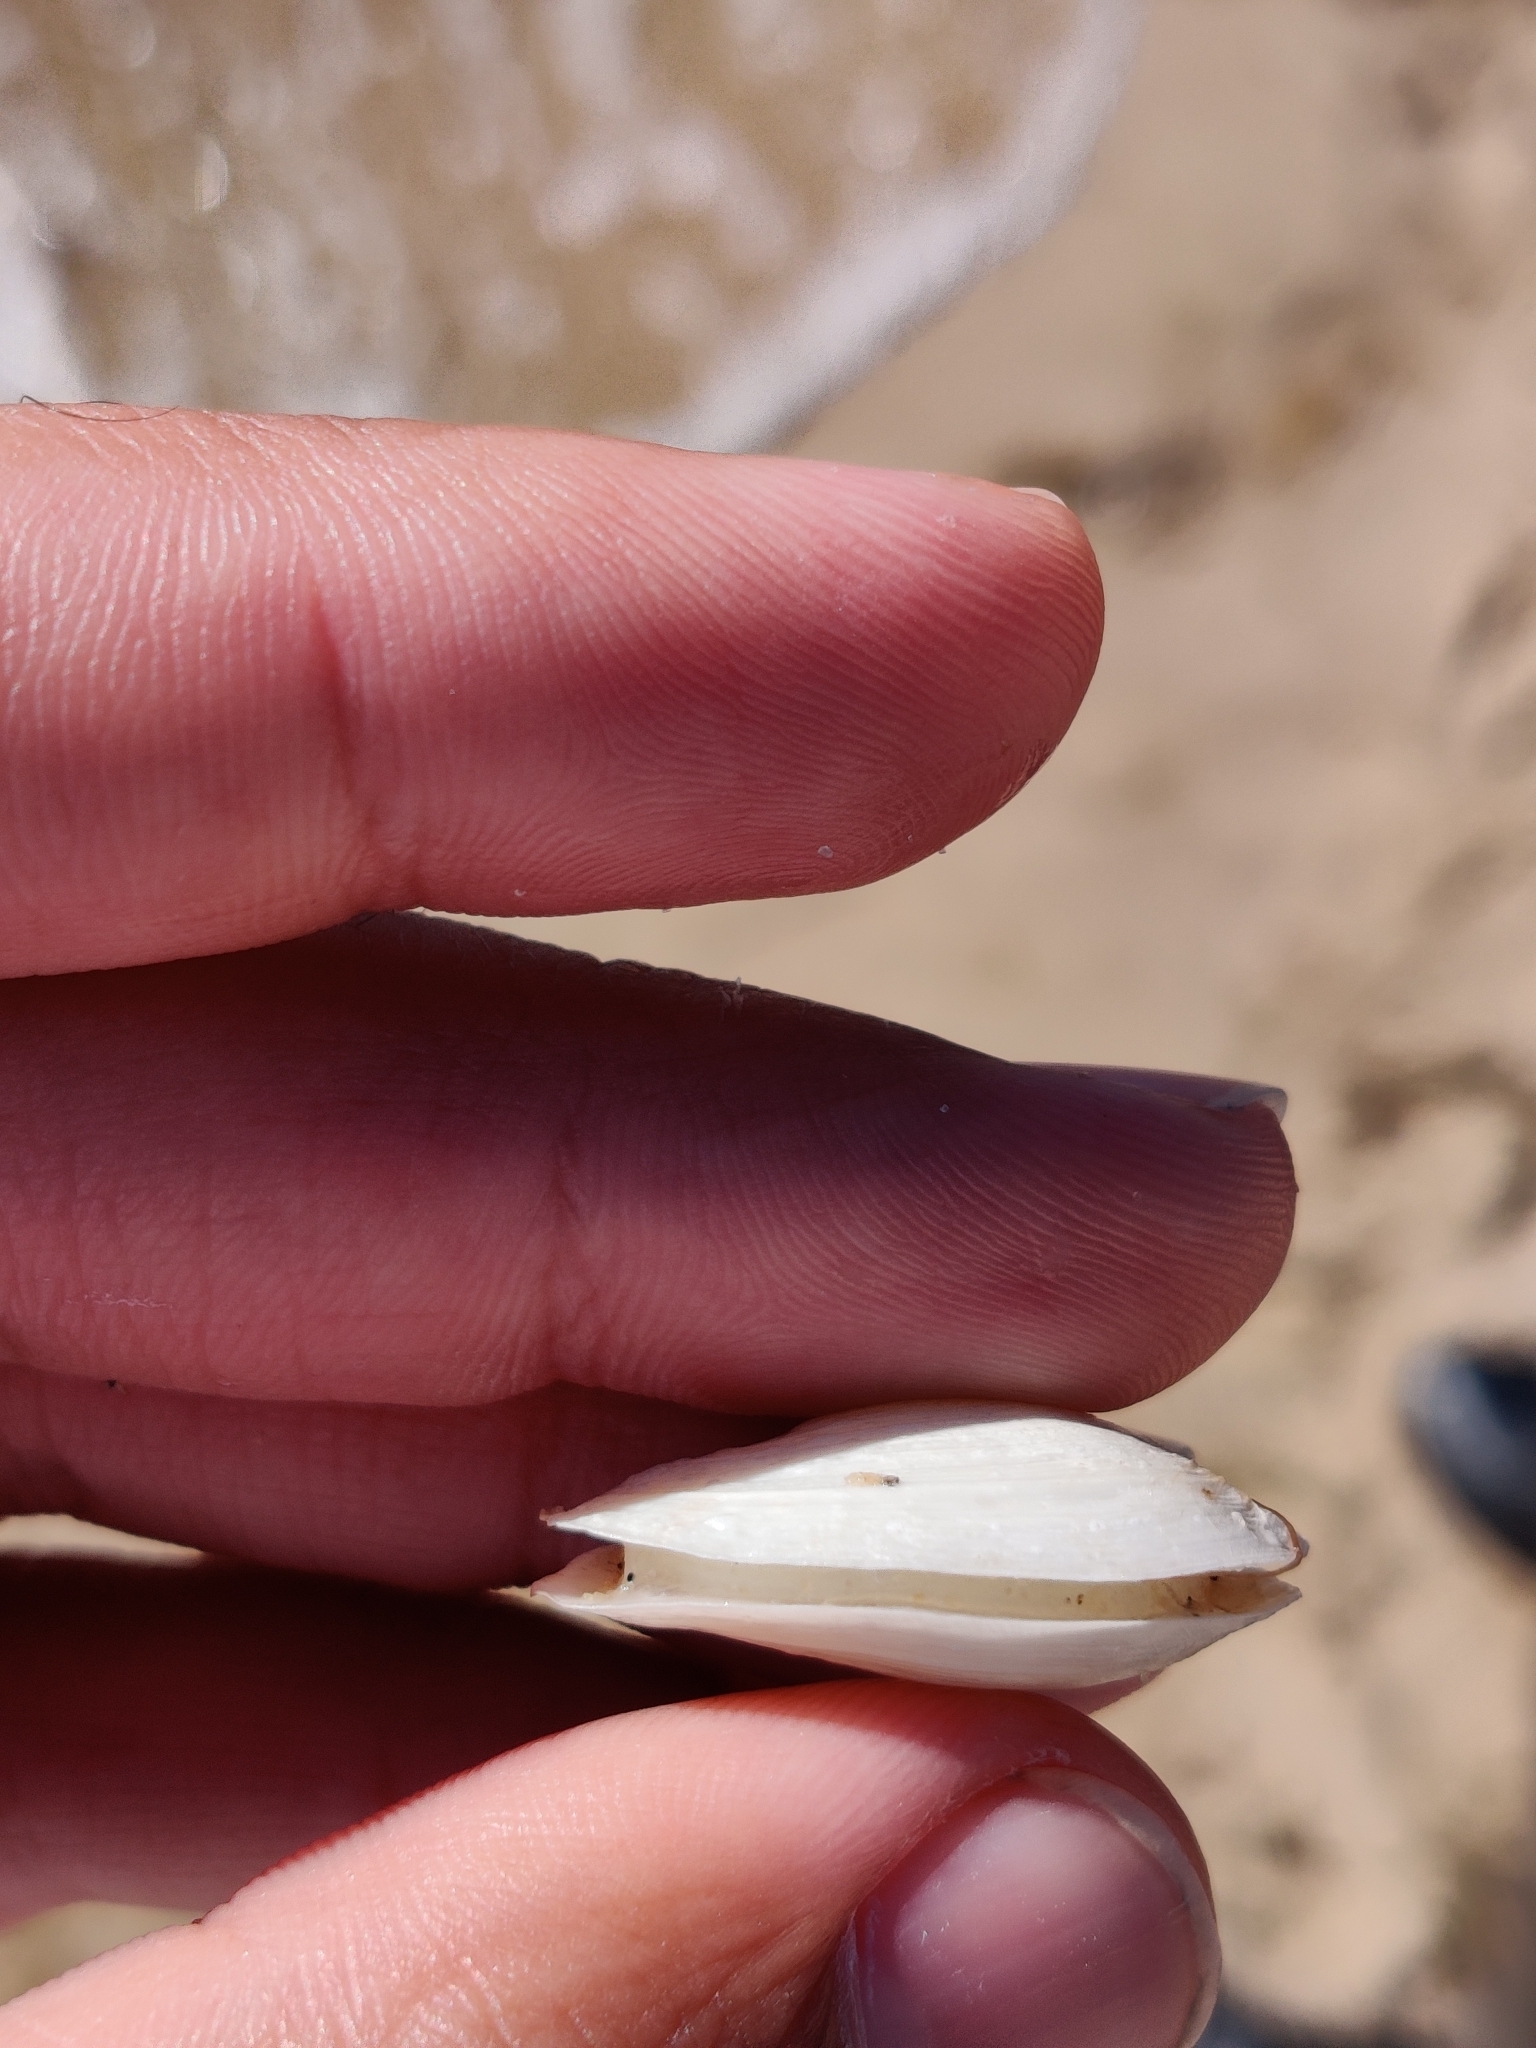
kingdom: Animalia
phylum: Mollusca
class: Bivalvia
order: Myida
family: Myidae
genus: Mya
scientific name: Mya arenaria
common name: Soft-shelled clam
